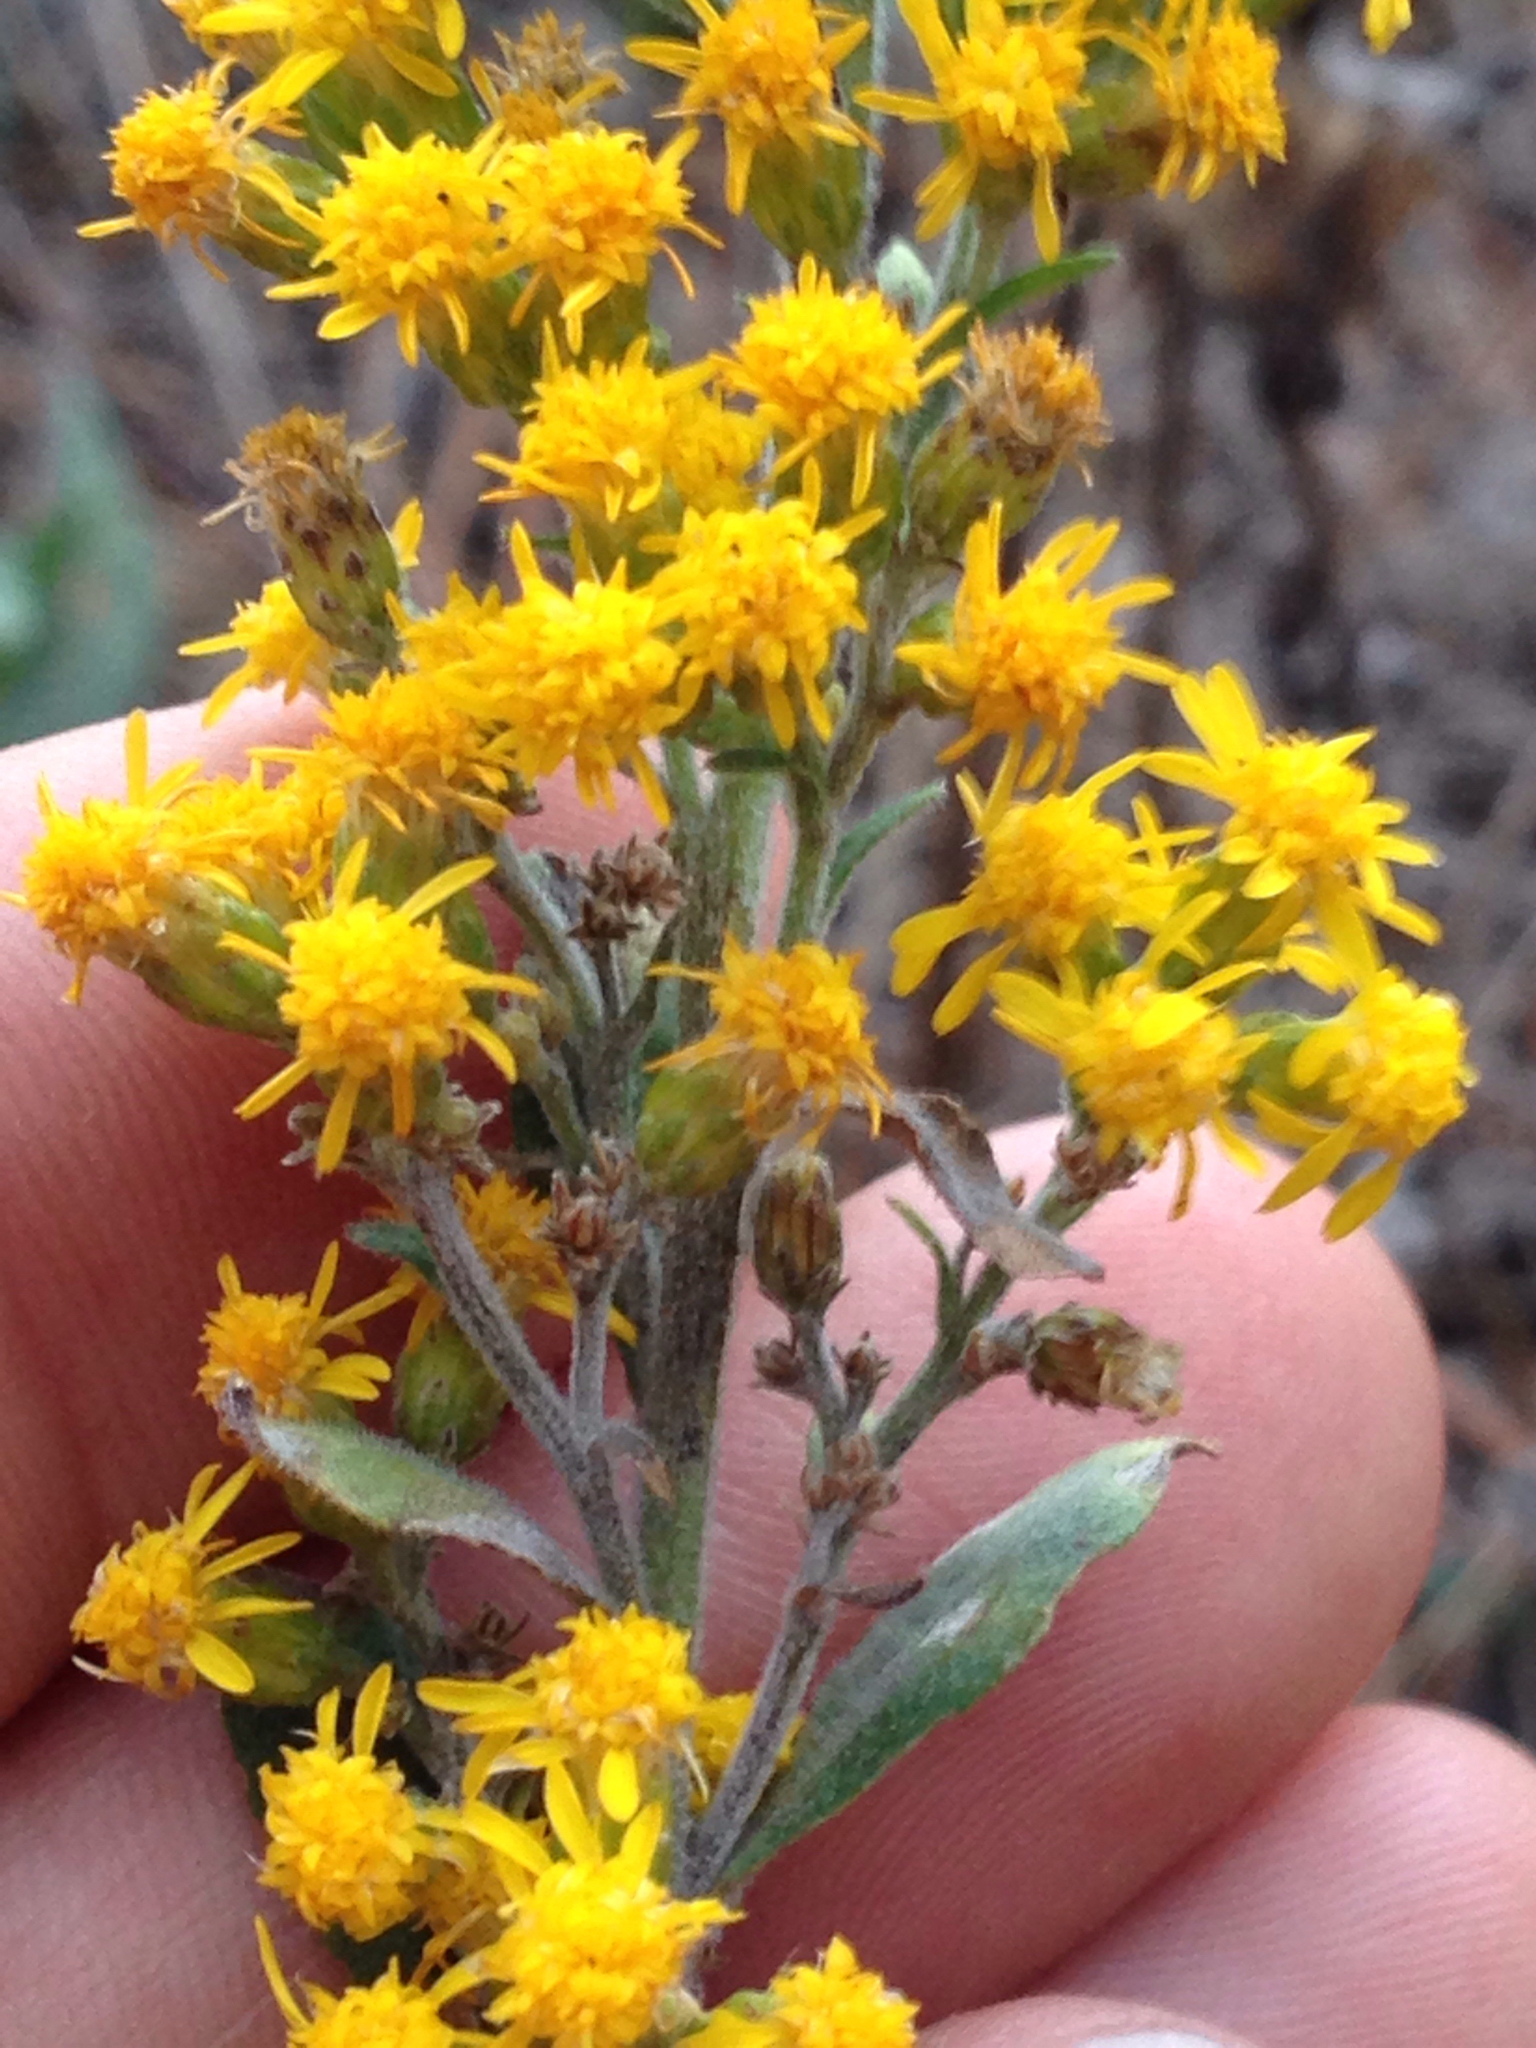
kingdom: Plantae
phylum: Tracheophyta
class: Magnoliopsida
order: Asterales
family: Asteraceae
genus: Solidago
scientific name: Solidago velutina
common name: Three-nerve goldenrod
